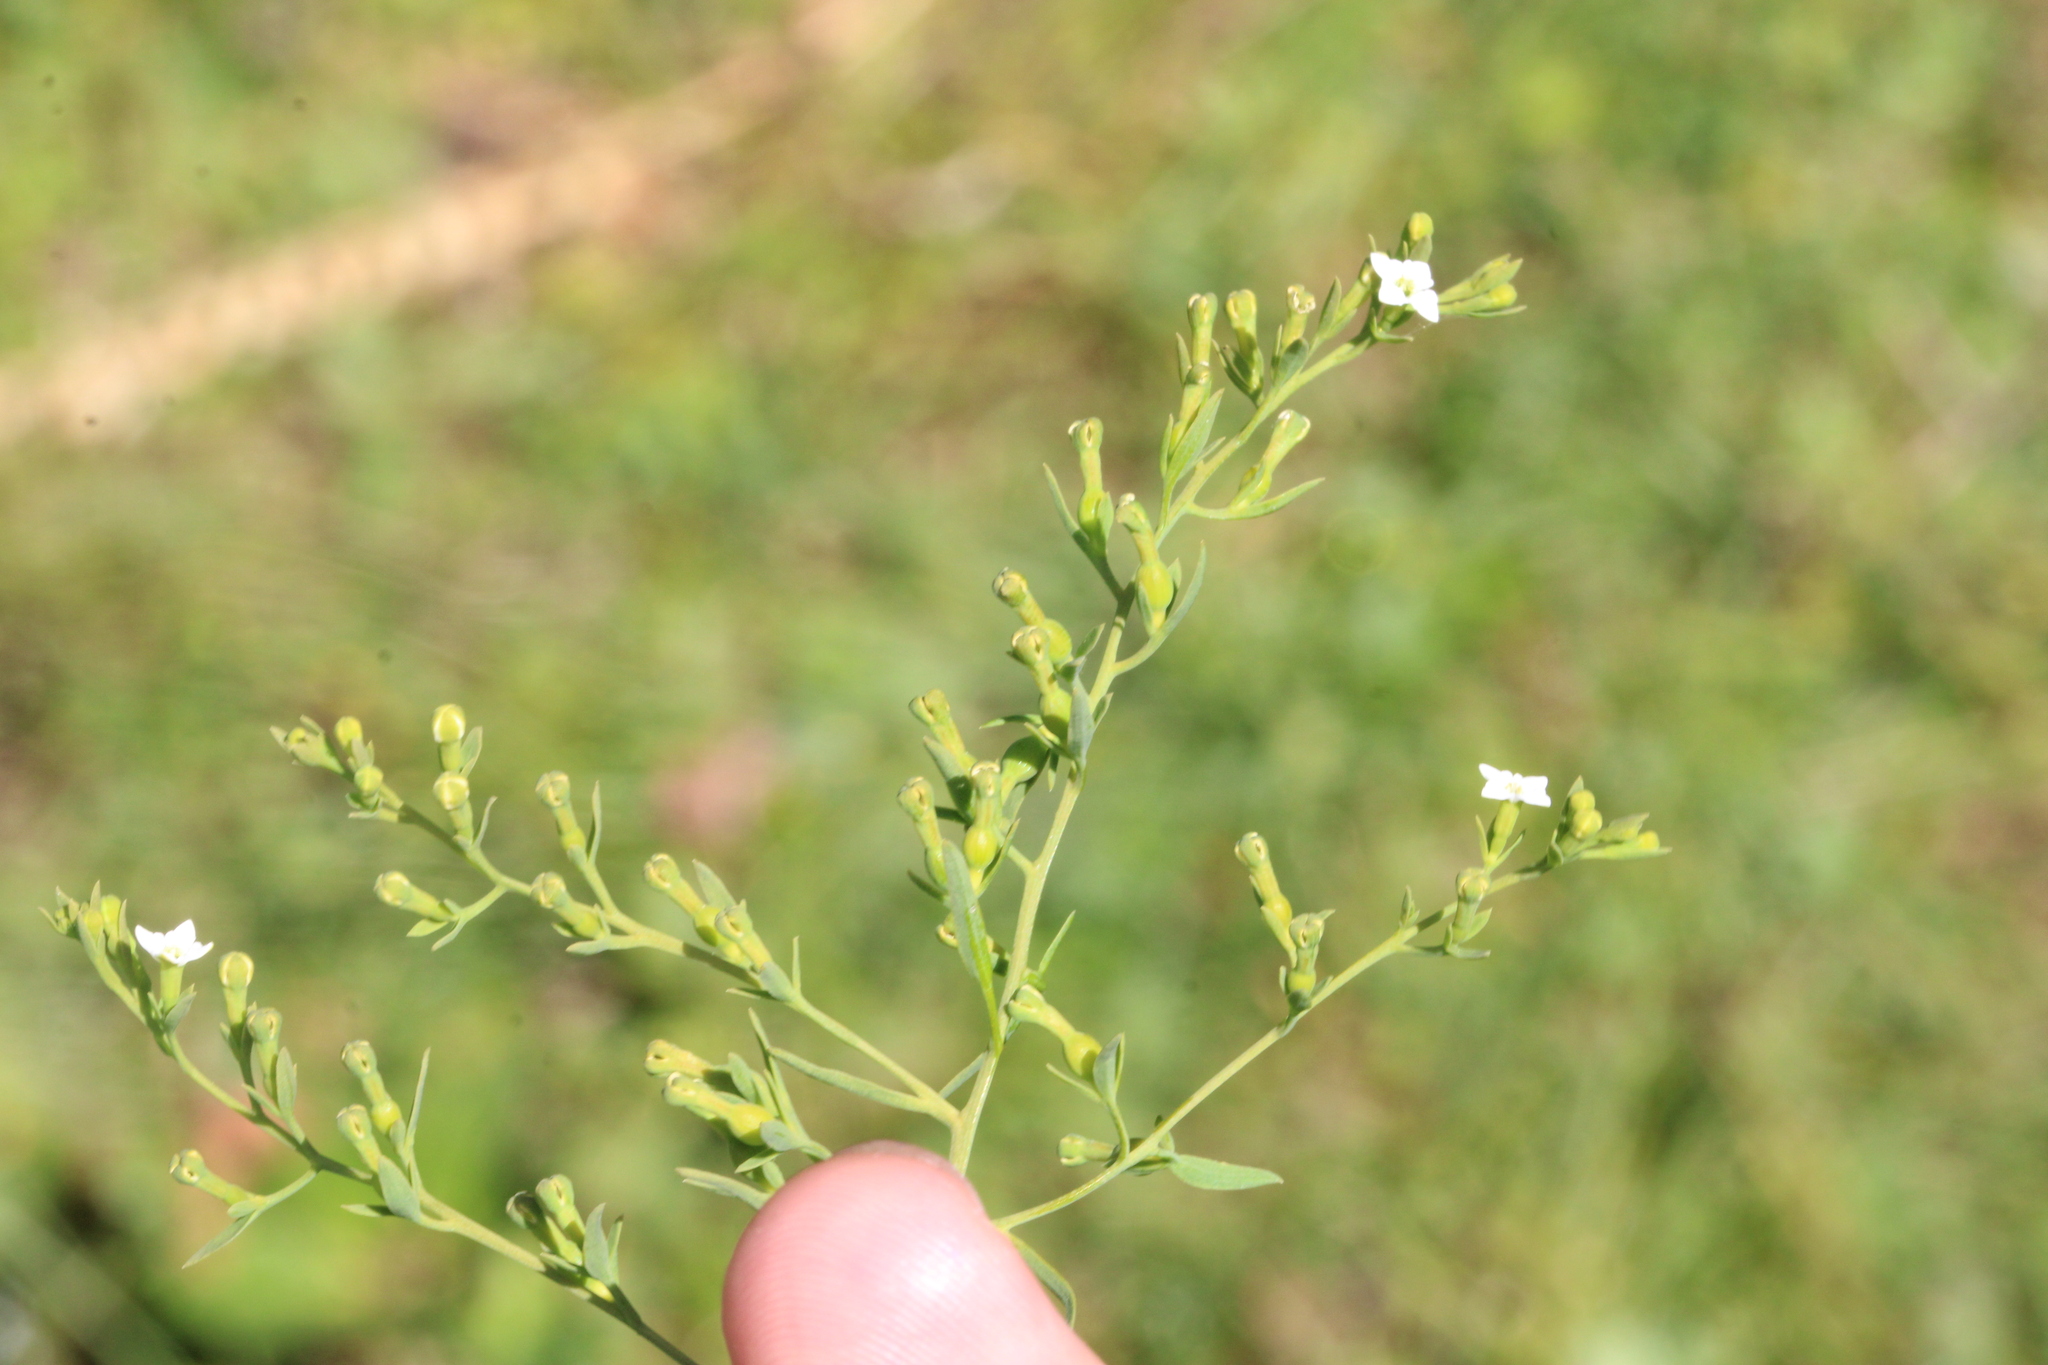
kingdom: Plantae
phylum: Tracheophyta
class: Magnoliopsida
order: Santalales
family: Thesiaceae
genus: Thesium
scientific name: Thesium alpinum
